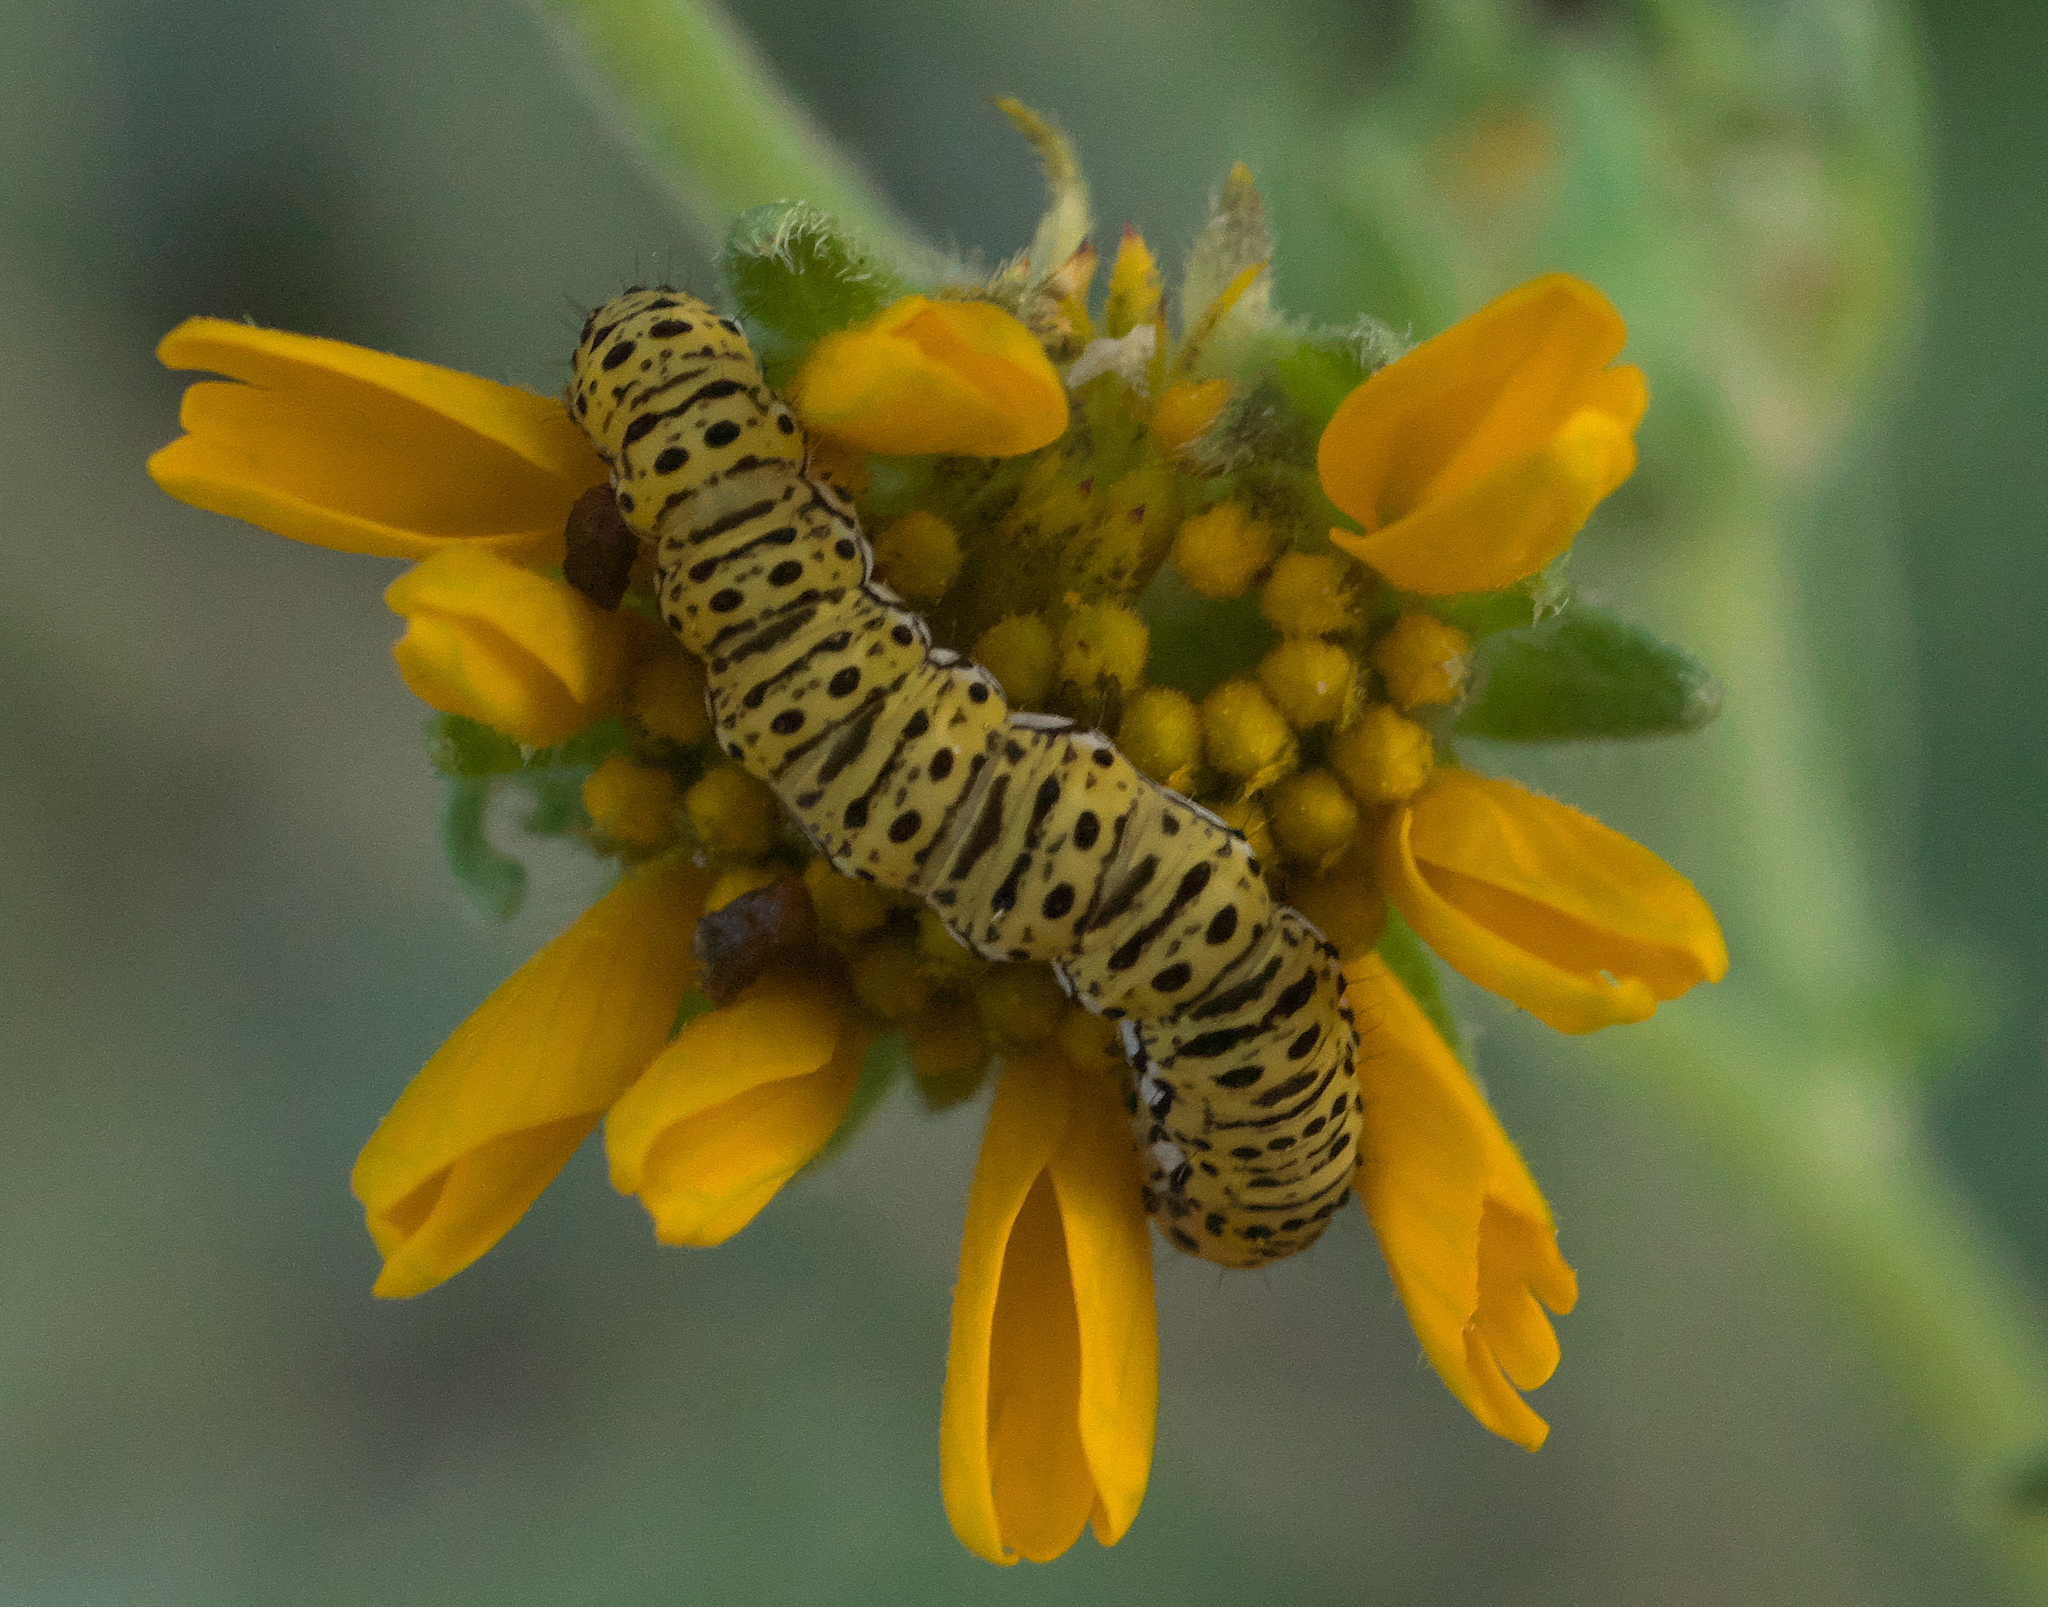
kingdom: Animalia
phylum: Arthropoda
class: Insecta
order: Lepidoptera
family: Noctuidae
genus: Basilodes
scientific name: Basilodes chrysopis
